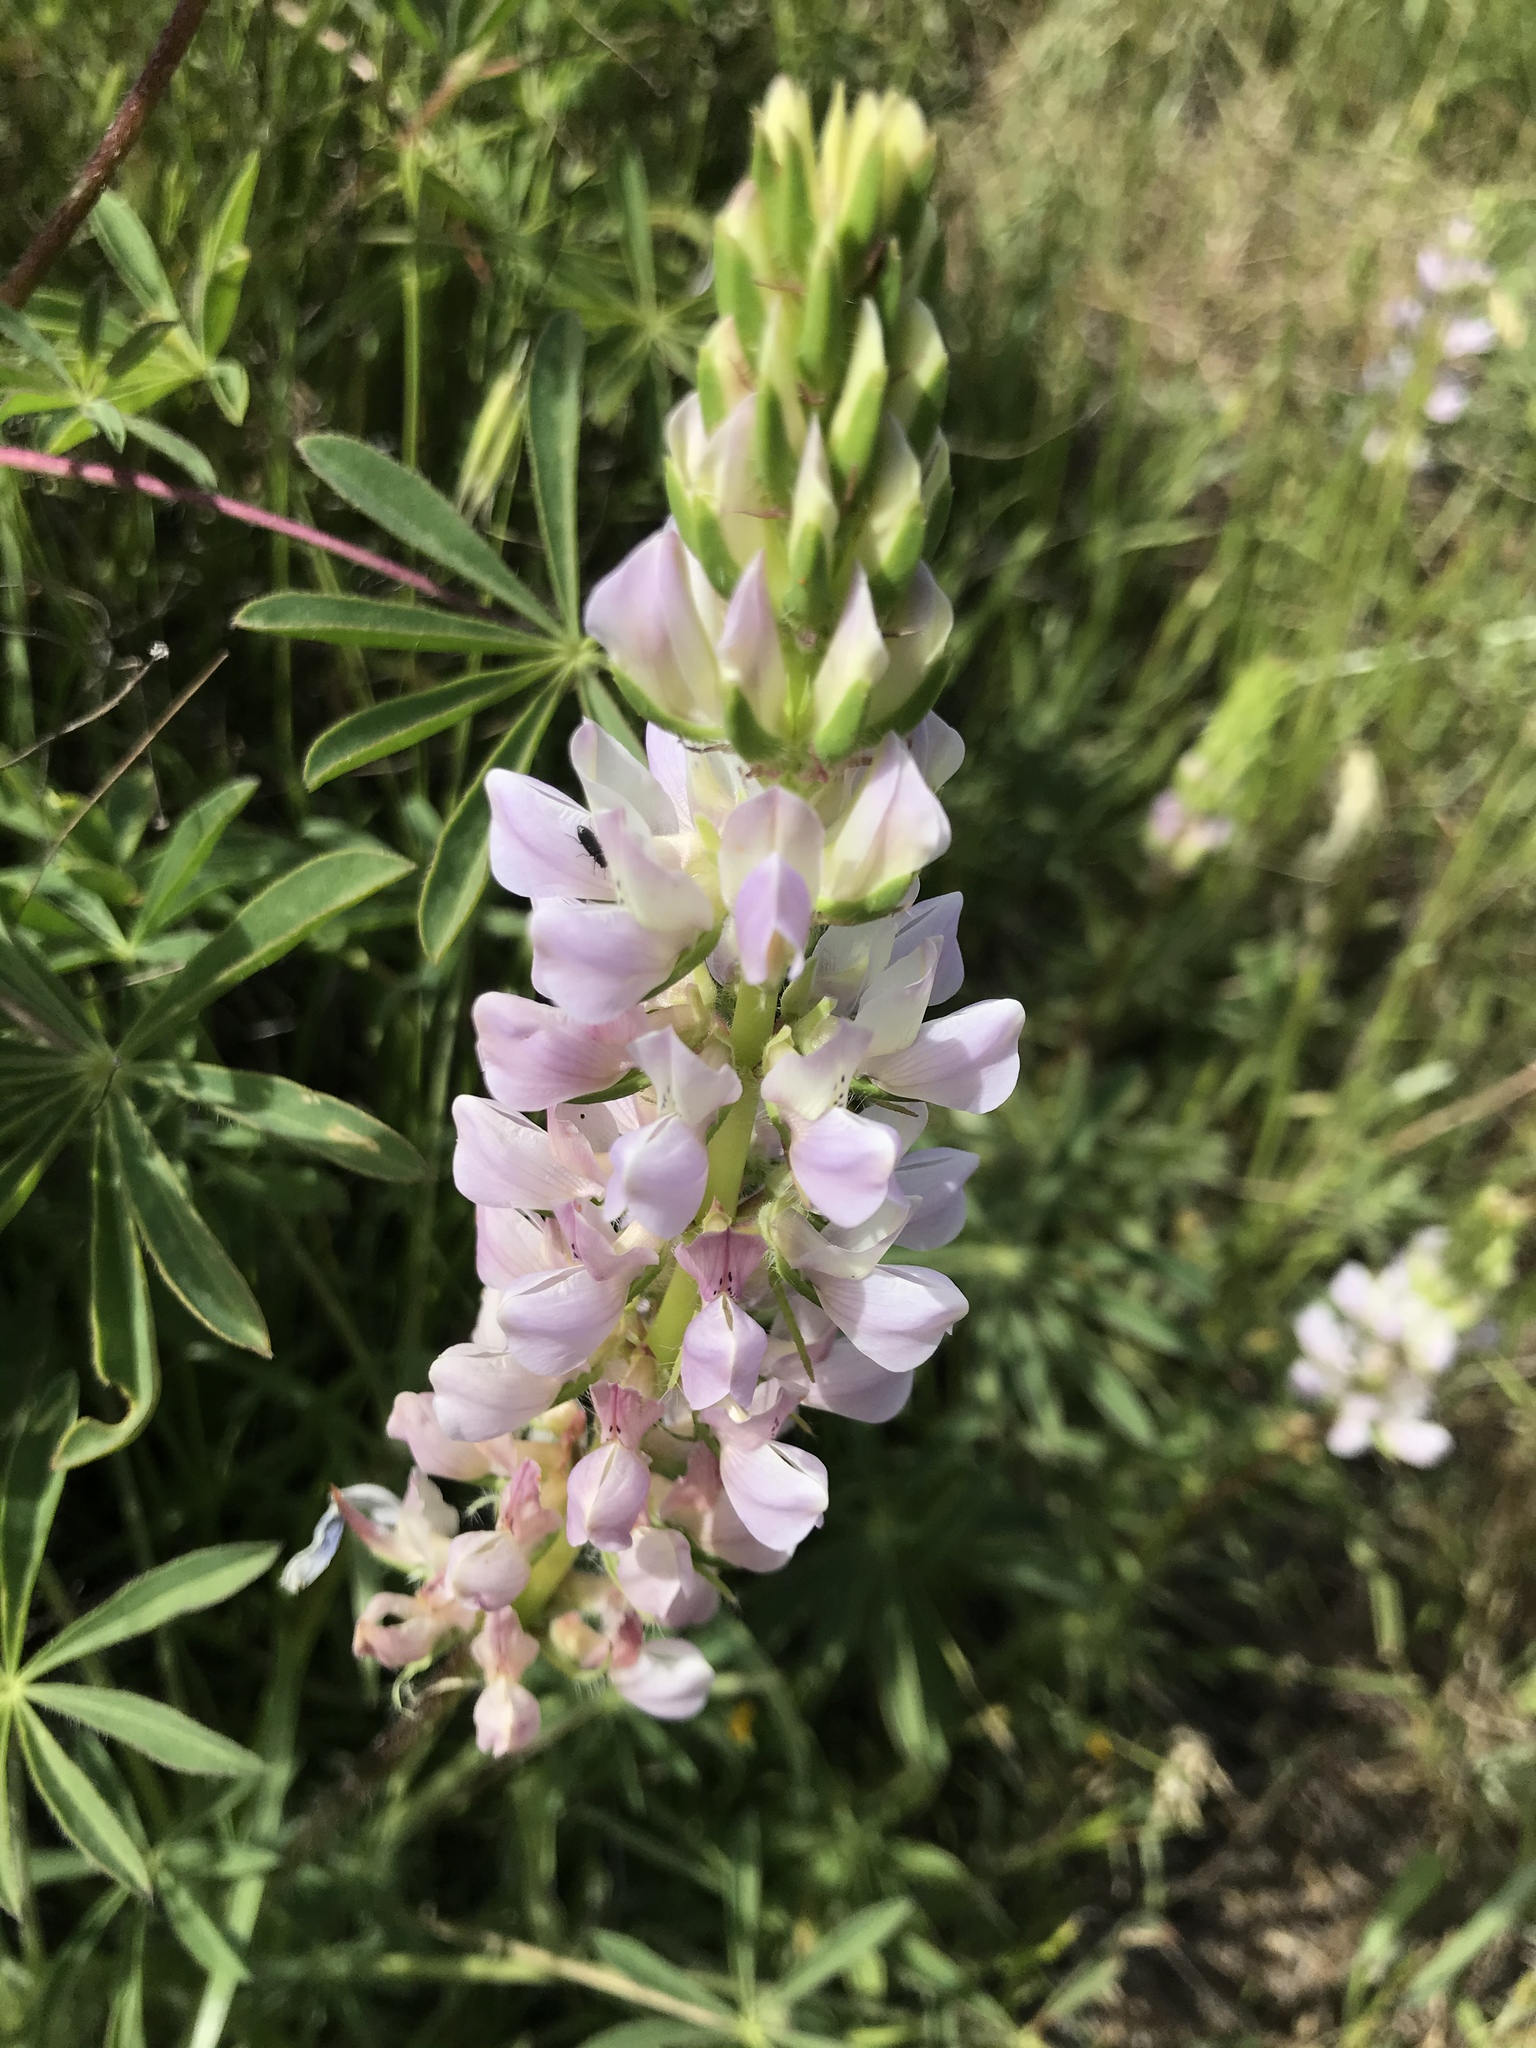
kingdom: Plantae
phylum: Tracheophyta
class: Magnoliopsida
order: Fabales
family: Fabaceae
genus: Lupinus
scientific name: Lupinus microcarpus
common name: Chick lupine
